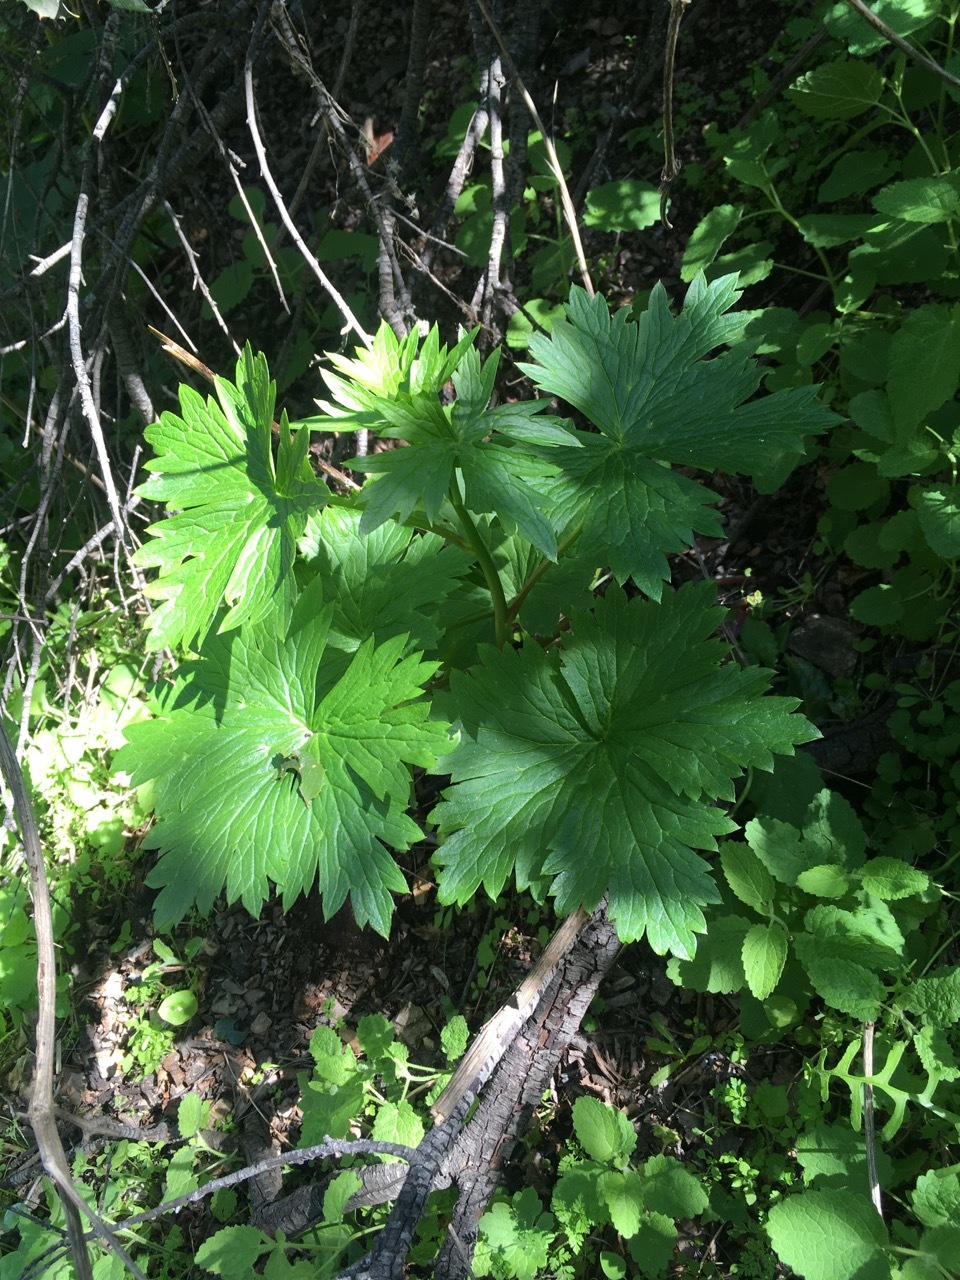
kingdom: Plantae
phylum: Tracheophyta
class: Magnoliopsida
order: Ranunculales
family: Ranunculaceae
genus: Delphinium
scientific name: Delphinium californicum
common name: California larkspur
